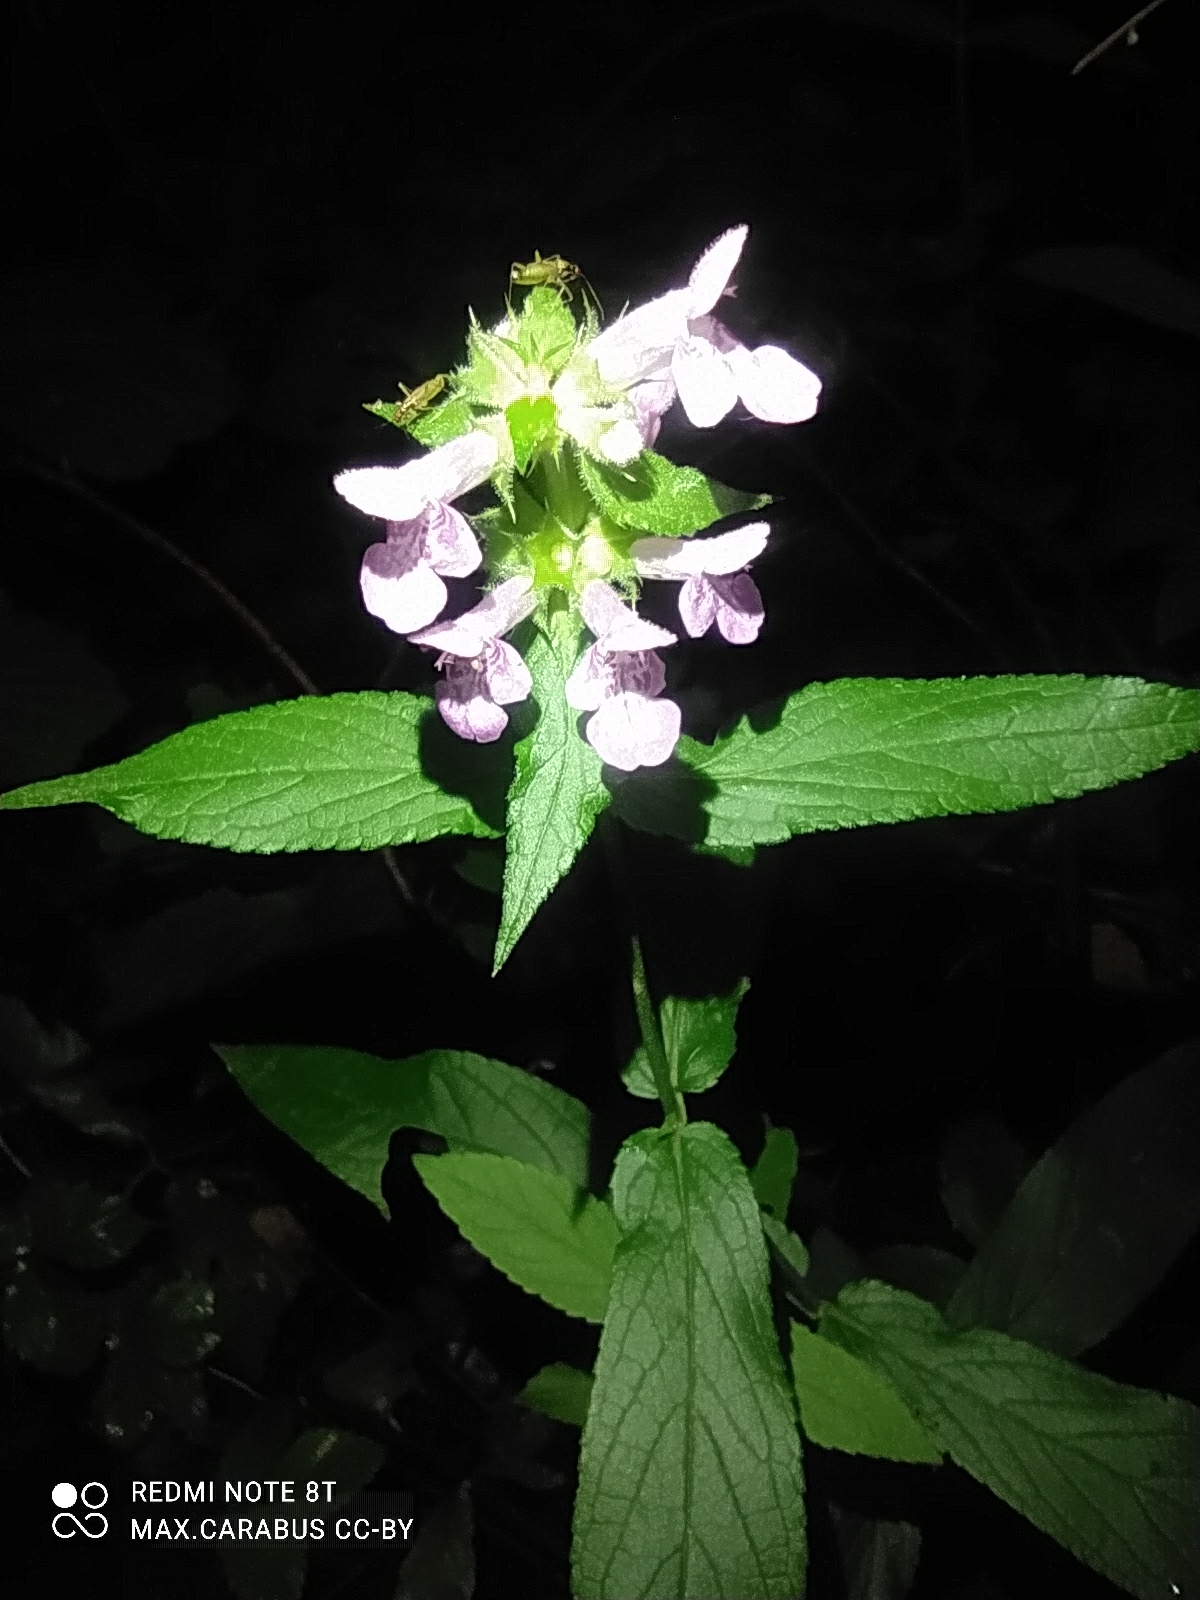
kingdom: Plantae
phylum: Tracheophyta
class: Magnoliopsida
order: Lamiales
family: Lamiaceae
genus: Stachys
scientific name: Stachys palustris
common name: Marsh woundwort
